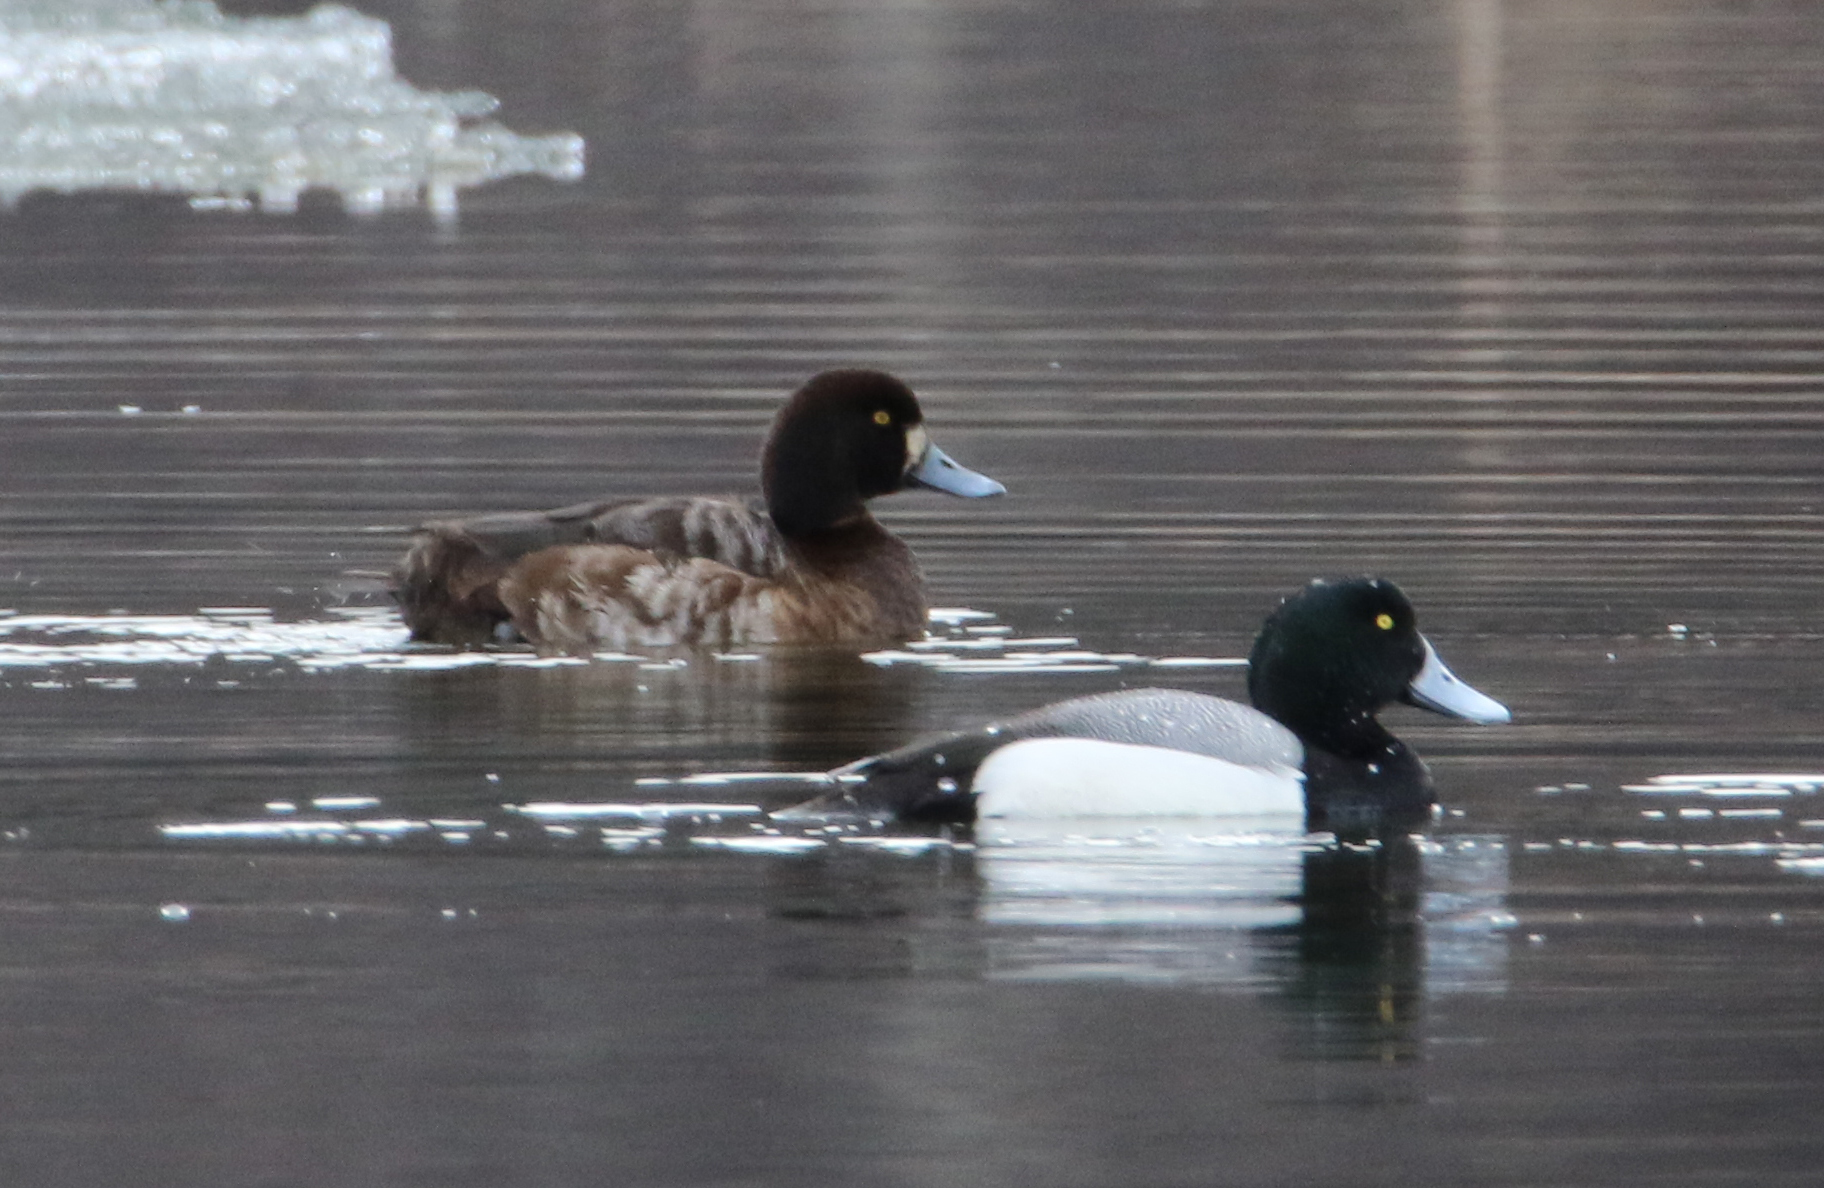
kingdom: Animalia
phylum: Chordata
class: Aves
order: Anseriformes
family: Anatidae
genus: Aythya
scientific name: Aythya marila
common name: Greater scaup
